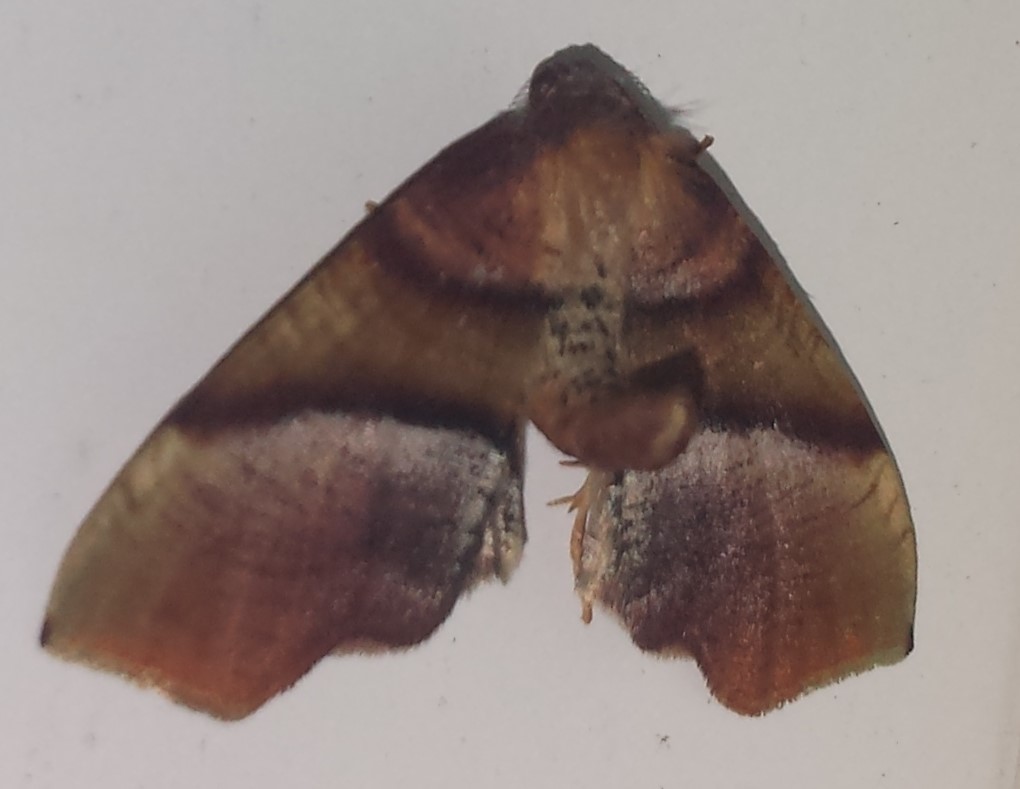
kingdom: Animalia
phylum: Arthropoda
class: Insecta
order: Lepidoptera
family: Geometridae
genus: Plagodis
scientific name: Plagodis phlogosaria
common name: Straight-lined plagodis
